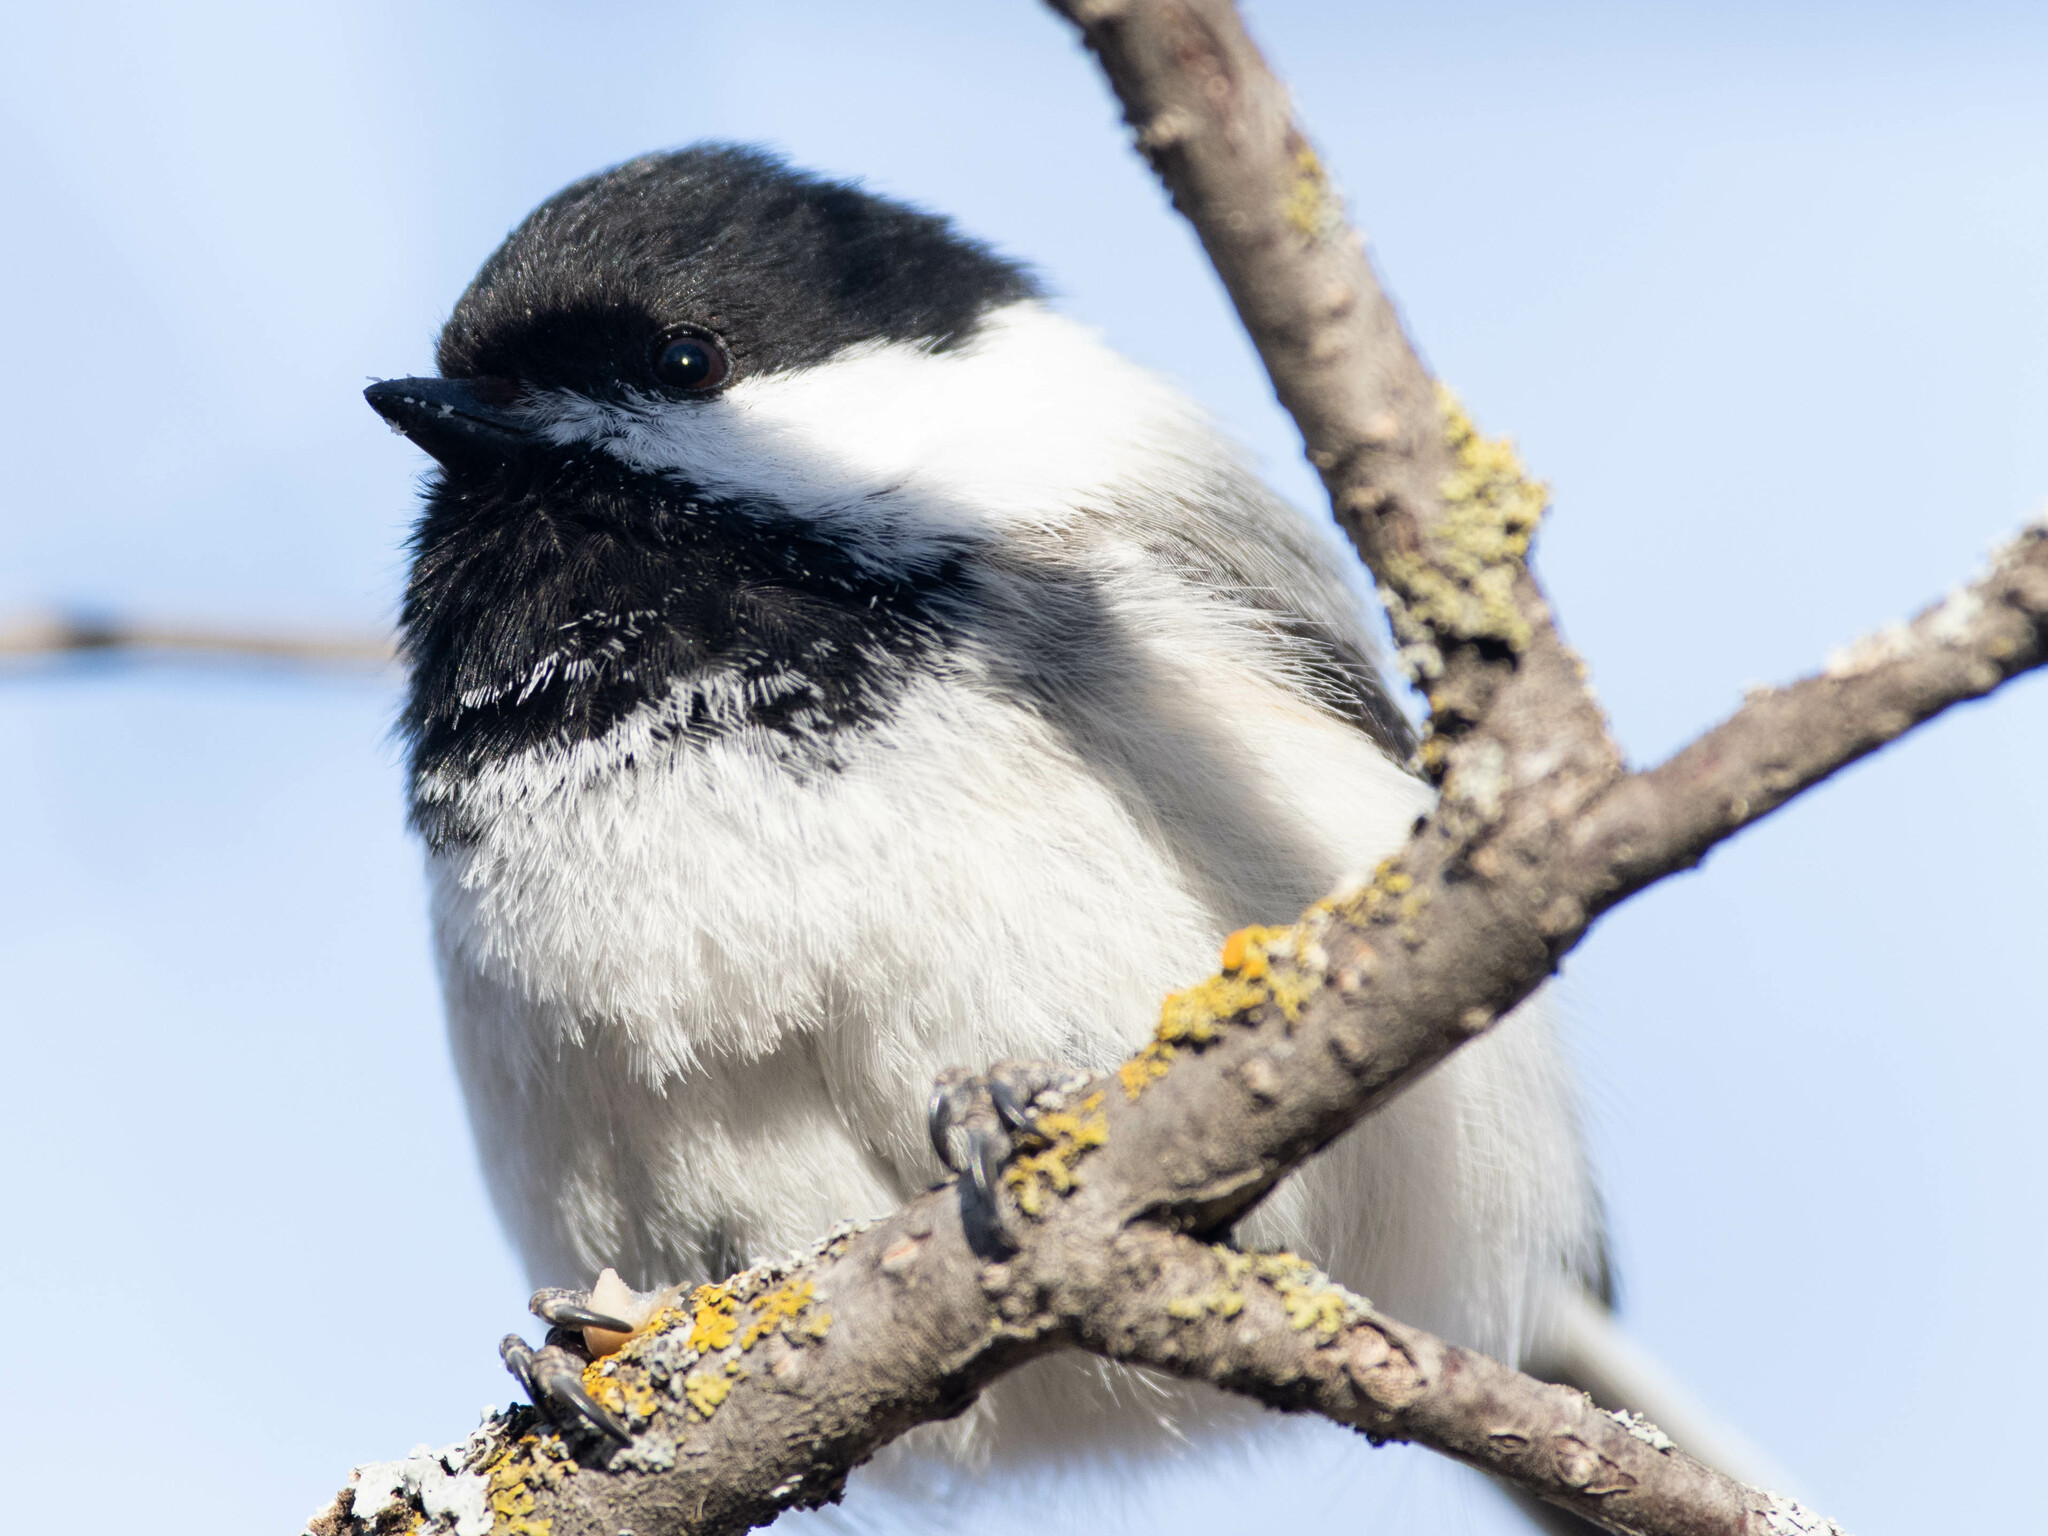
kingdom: Animalia
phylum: Chordata
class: Aves
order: Passeriformes
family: Paridae
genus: Poecile
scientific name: Poecile atricapillus
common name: Black-capped chickadee
